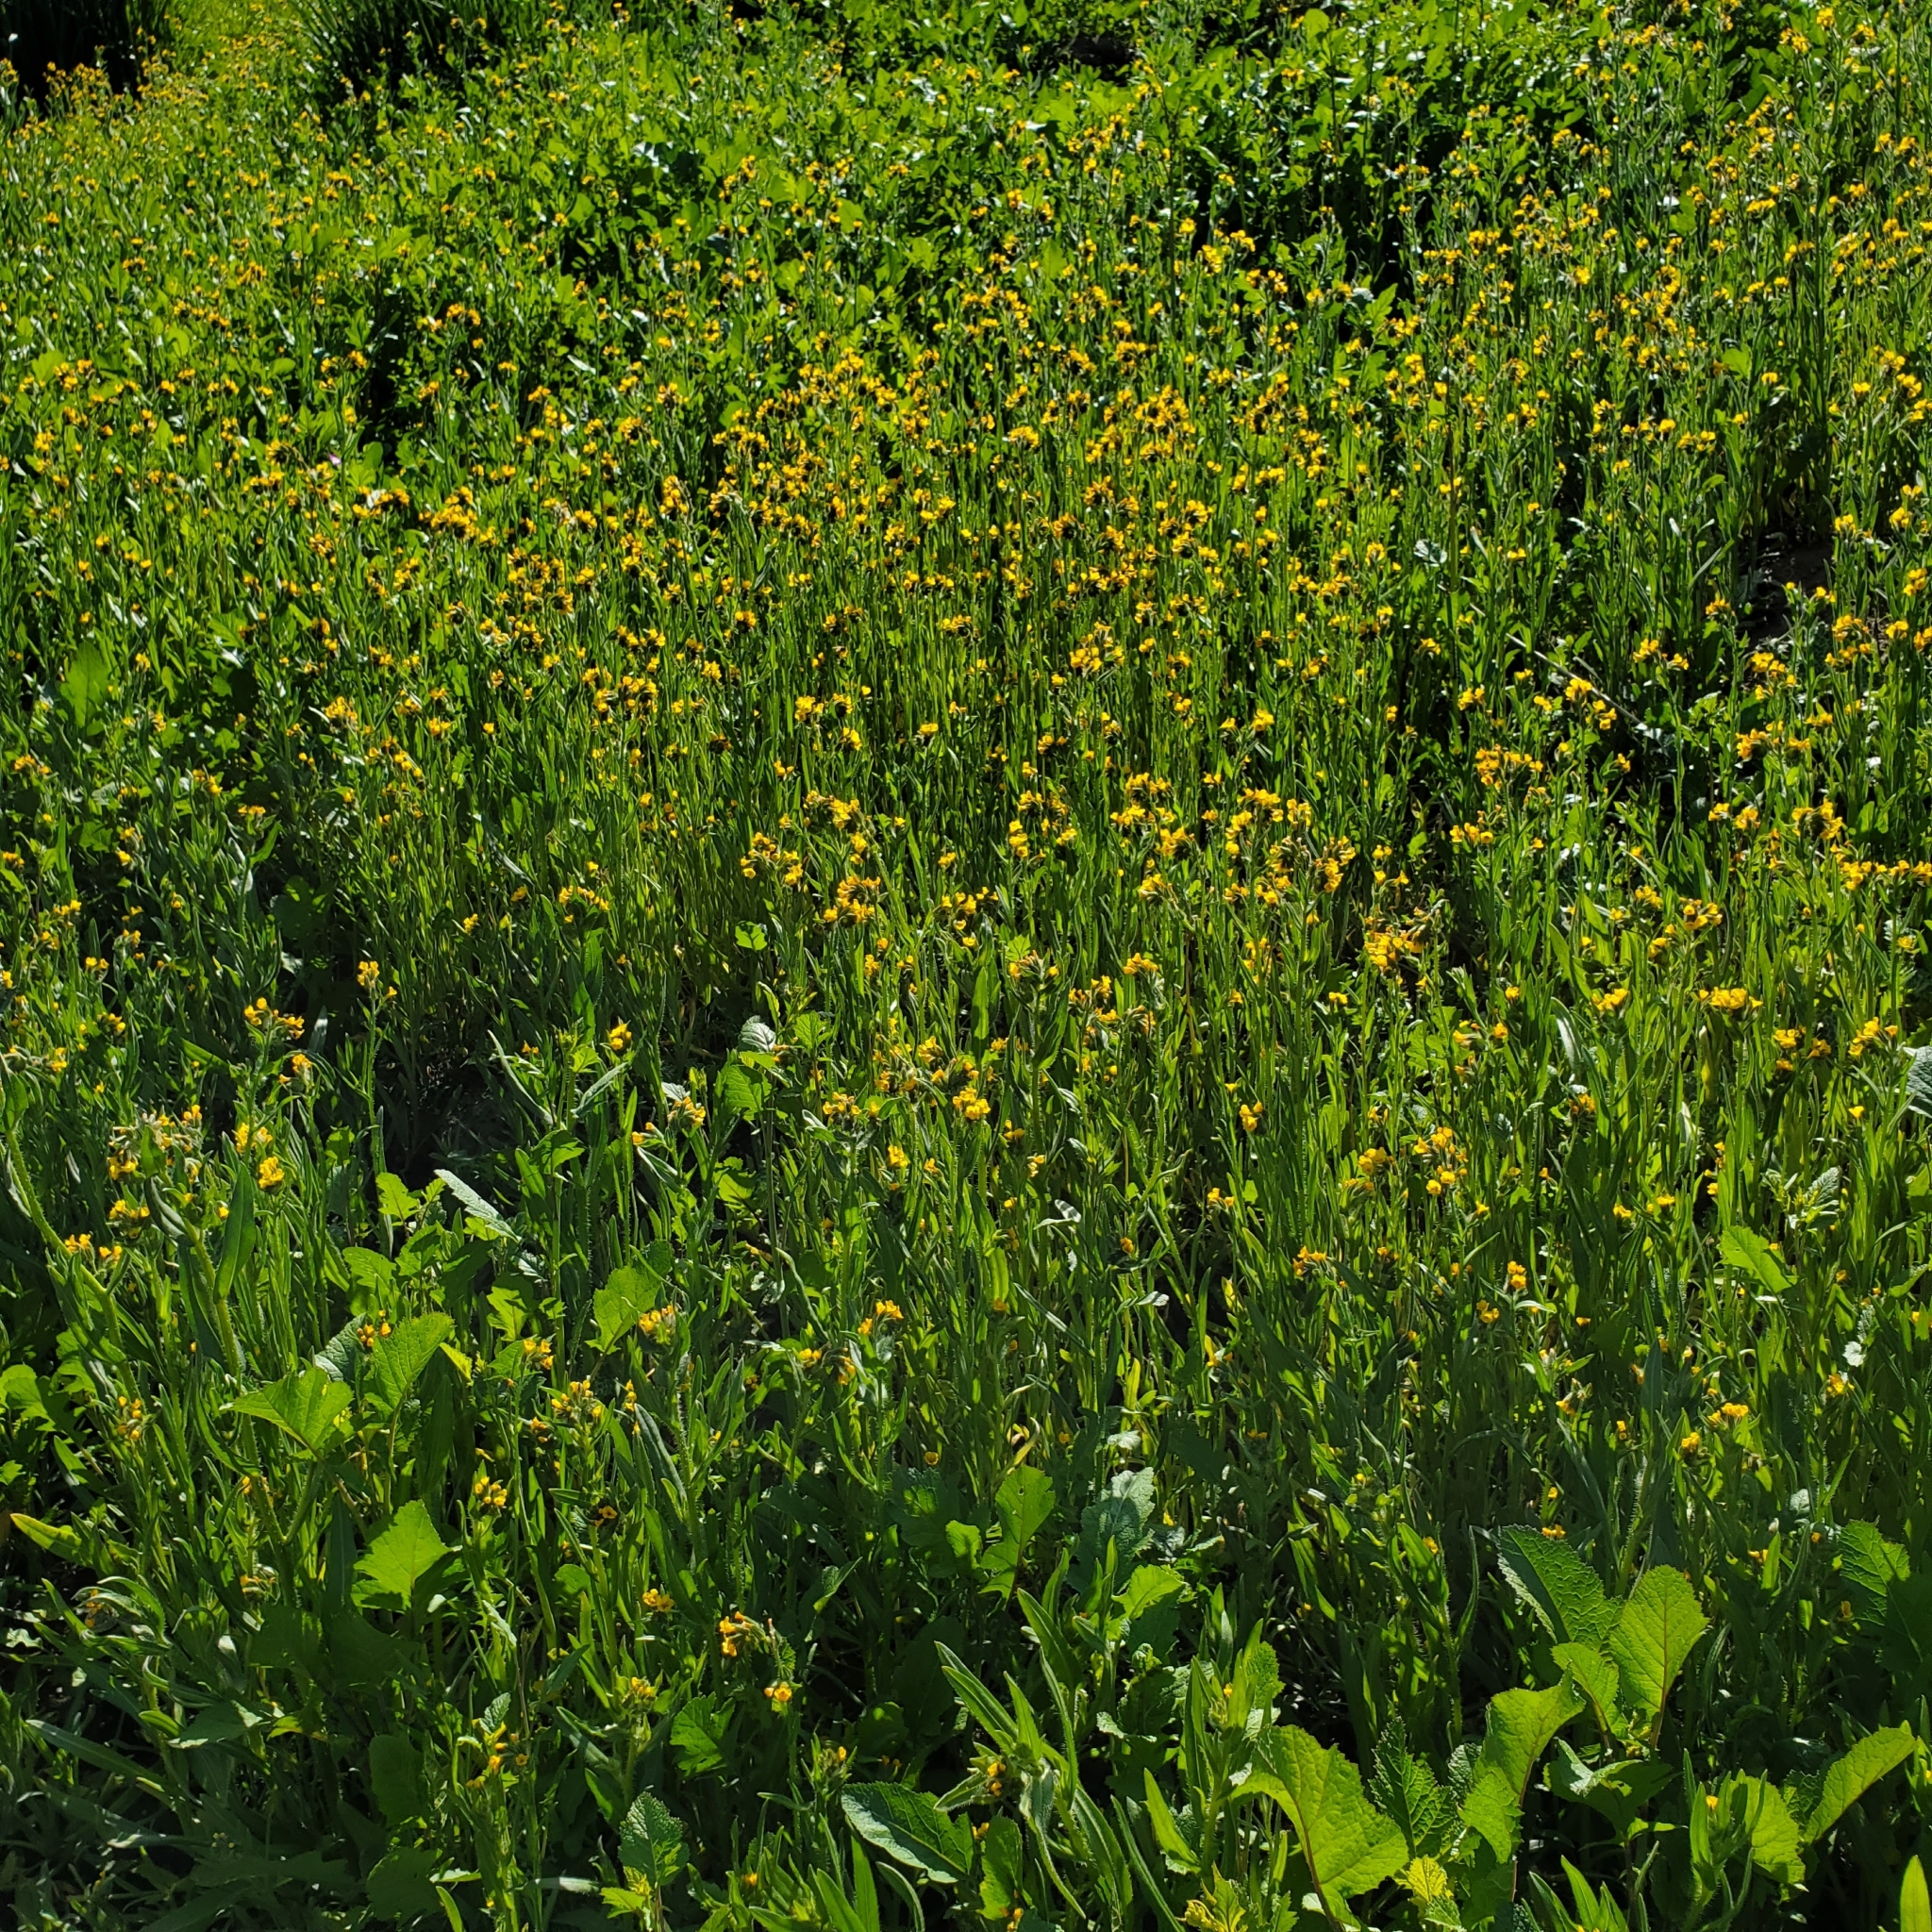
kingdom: Plantae
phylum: Tracheophyta
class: Magnoliopsida
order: Boraginales
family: Boraginaceae
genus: Amsinckia
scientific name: Amsinckia menziesii
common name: Menzies' fiddleneck
